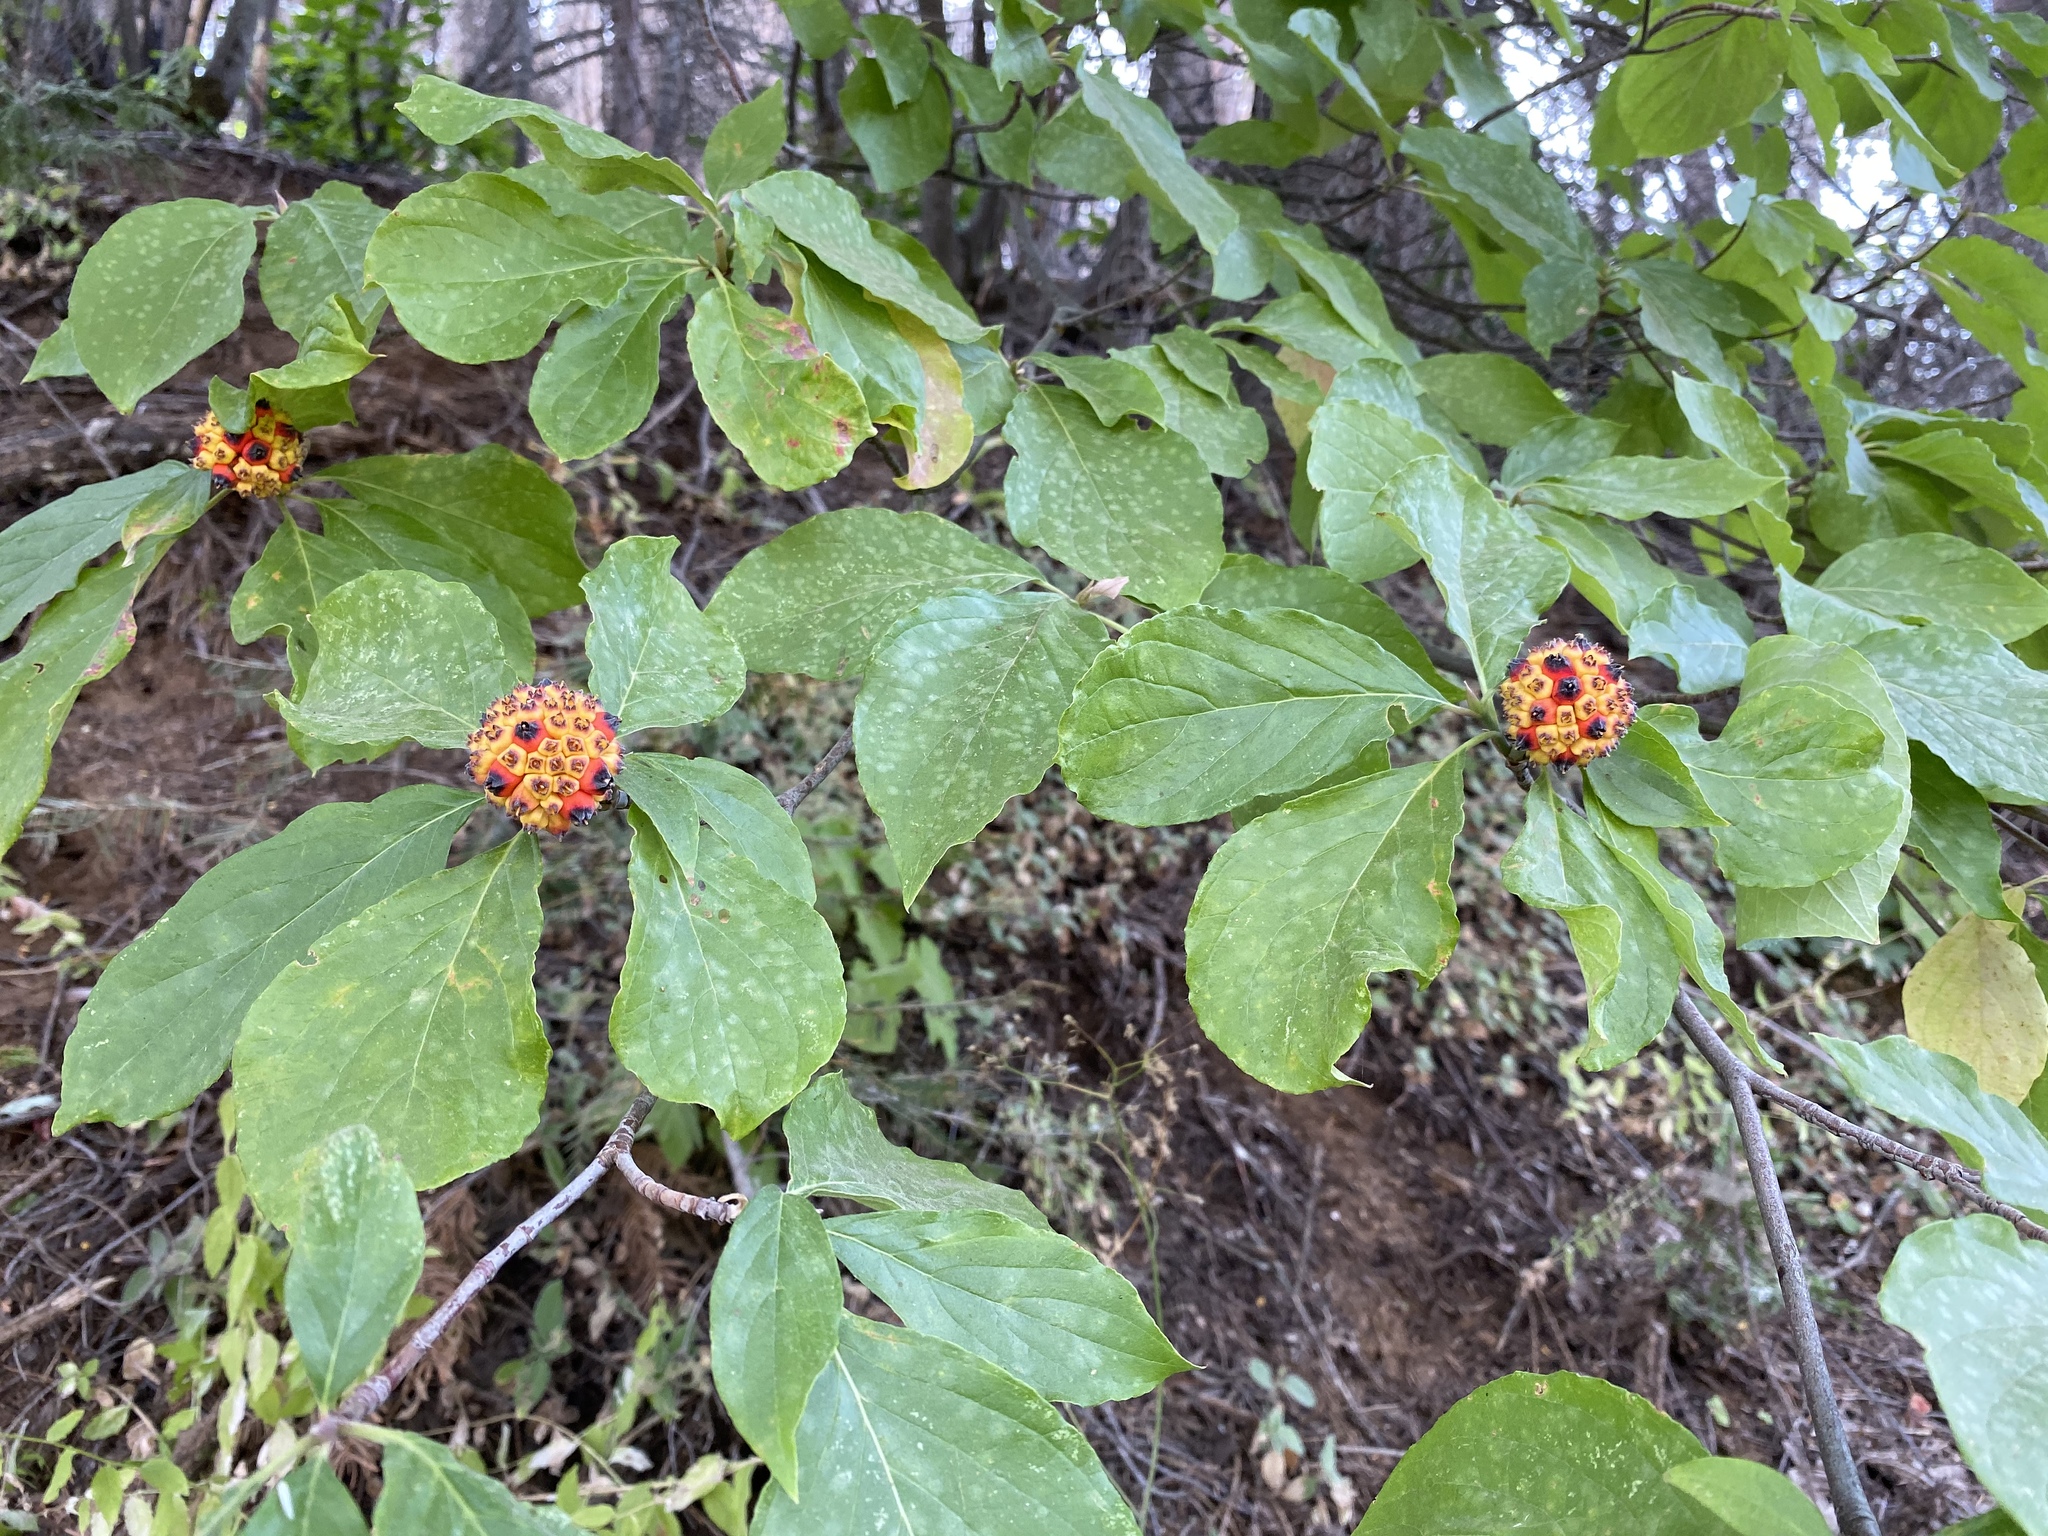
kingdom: Plantae
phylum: Tracheophyta
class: Magnoliopsida
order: Cornales
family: Cornaceae
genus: Cornus
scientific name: Cornus nuttallii
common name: Pacific dogwood
